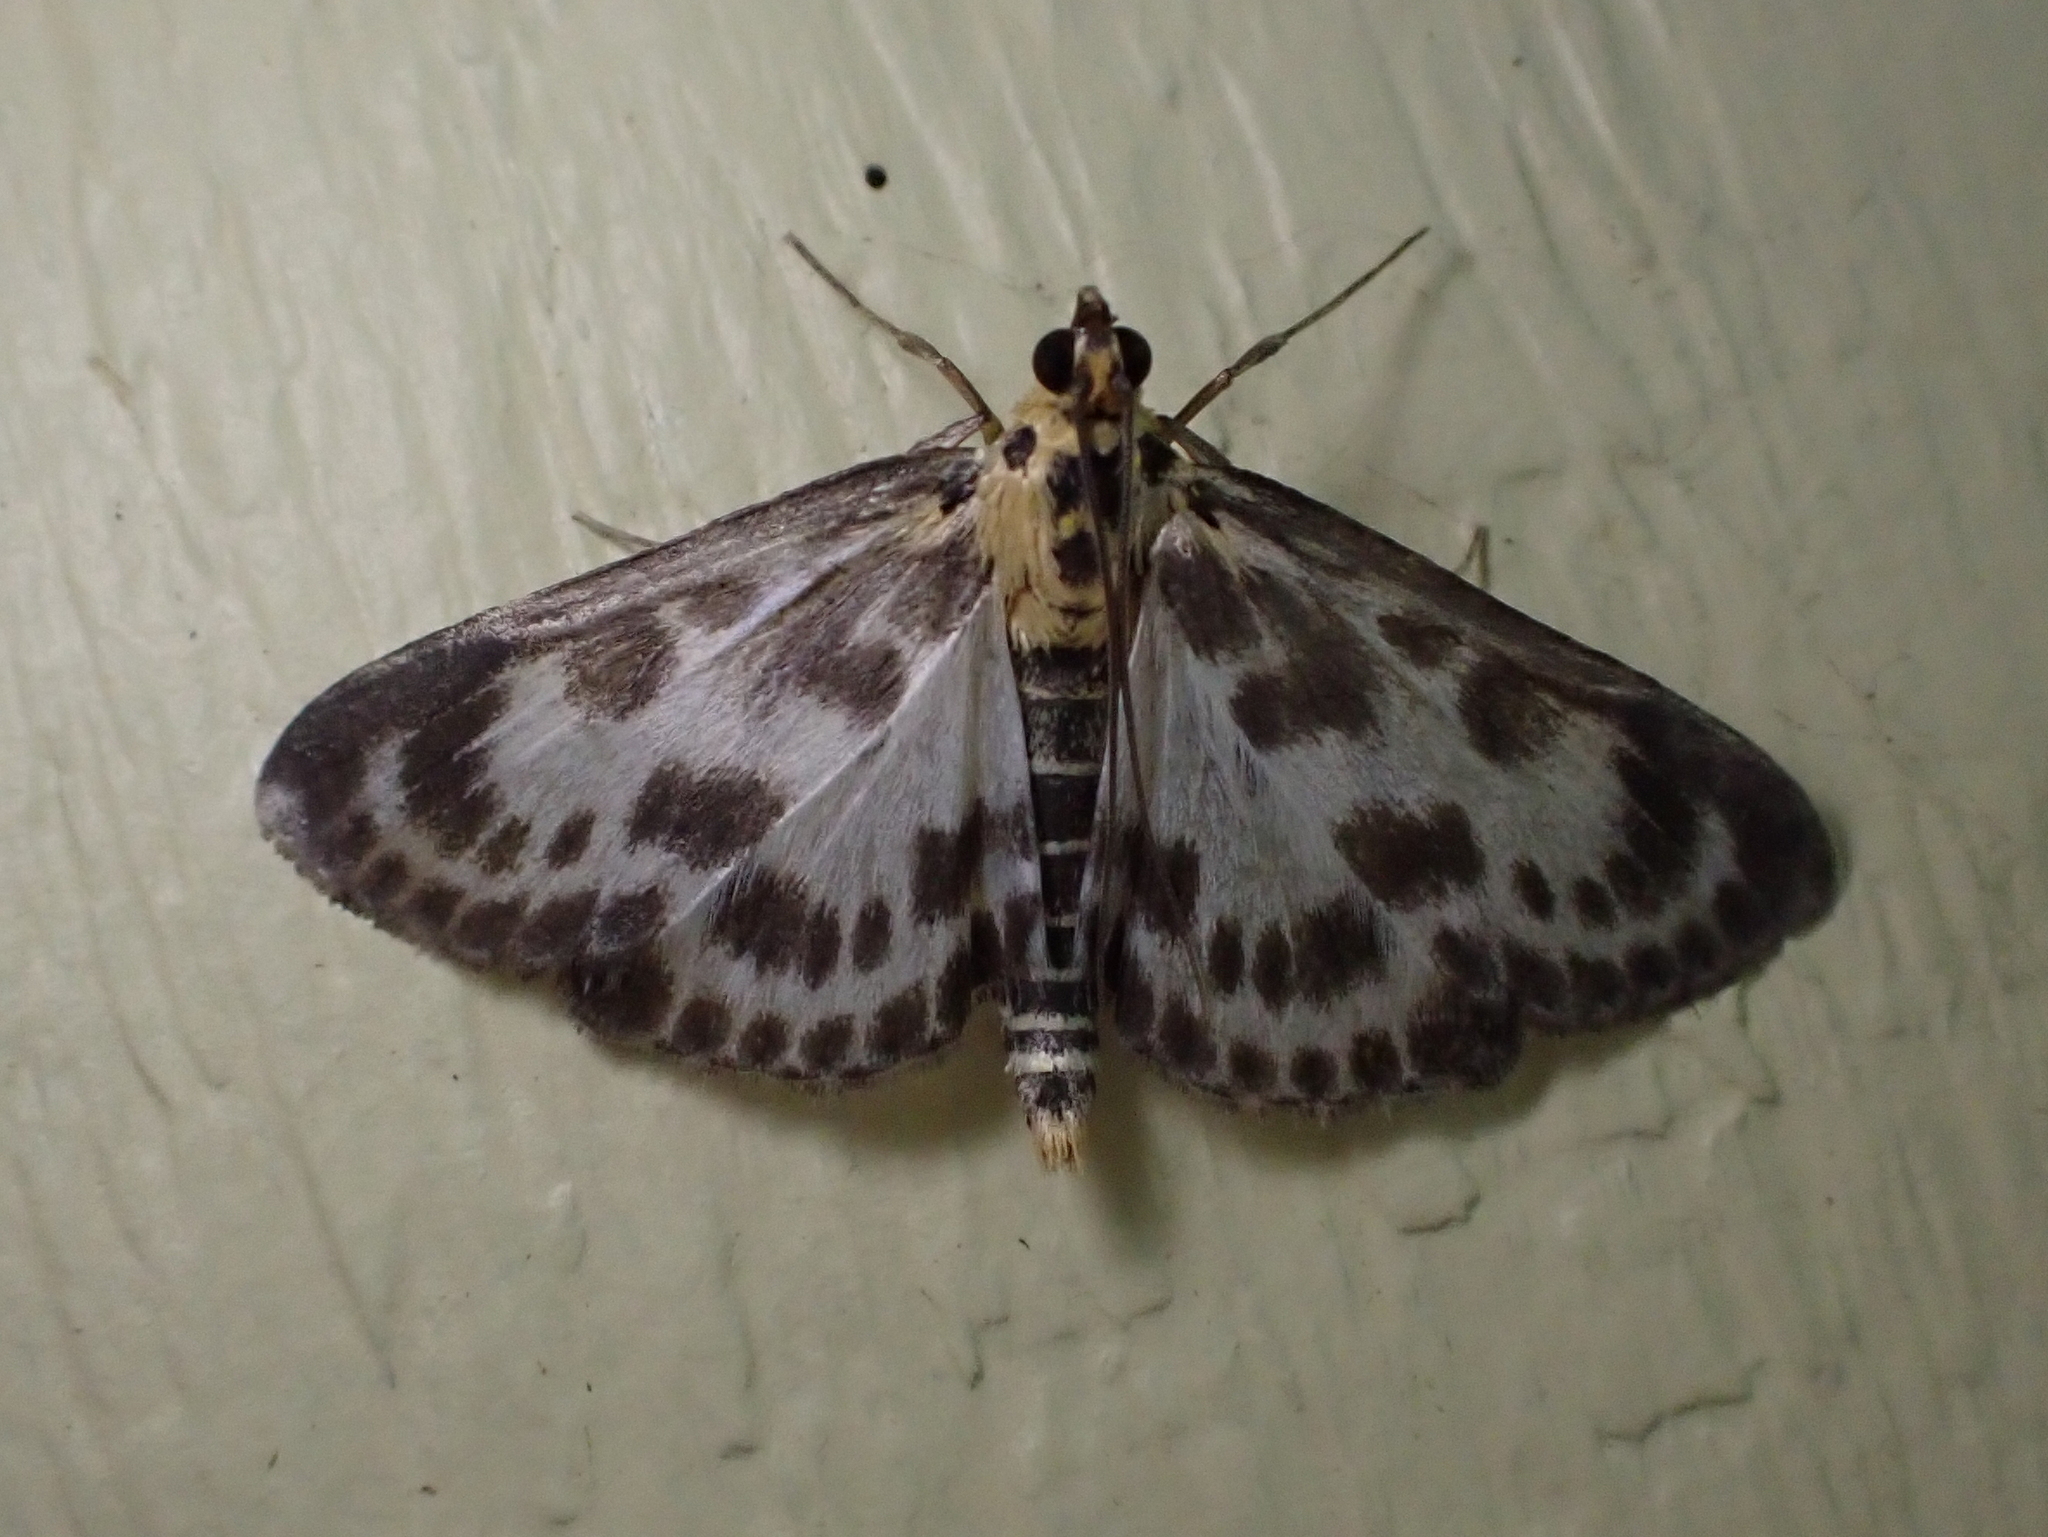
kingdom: Animalia
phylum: Arthropoda
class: Insecta
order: Lepidoptera
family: Crambidae
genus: Anania
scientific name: Anania hortulata
